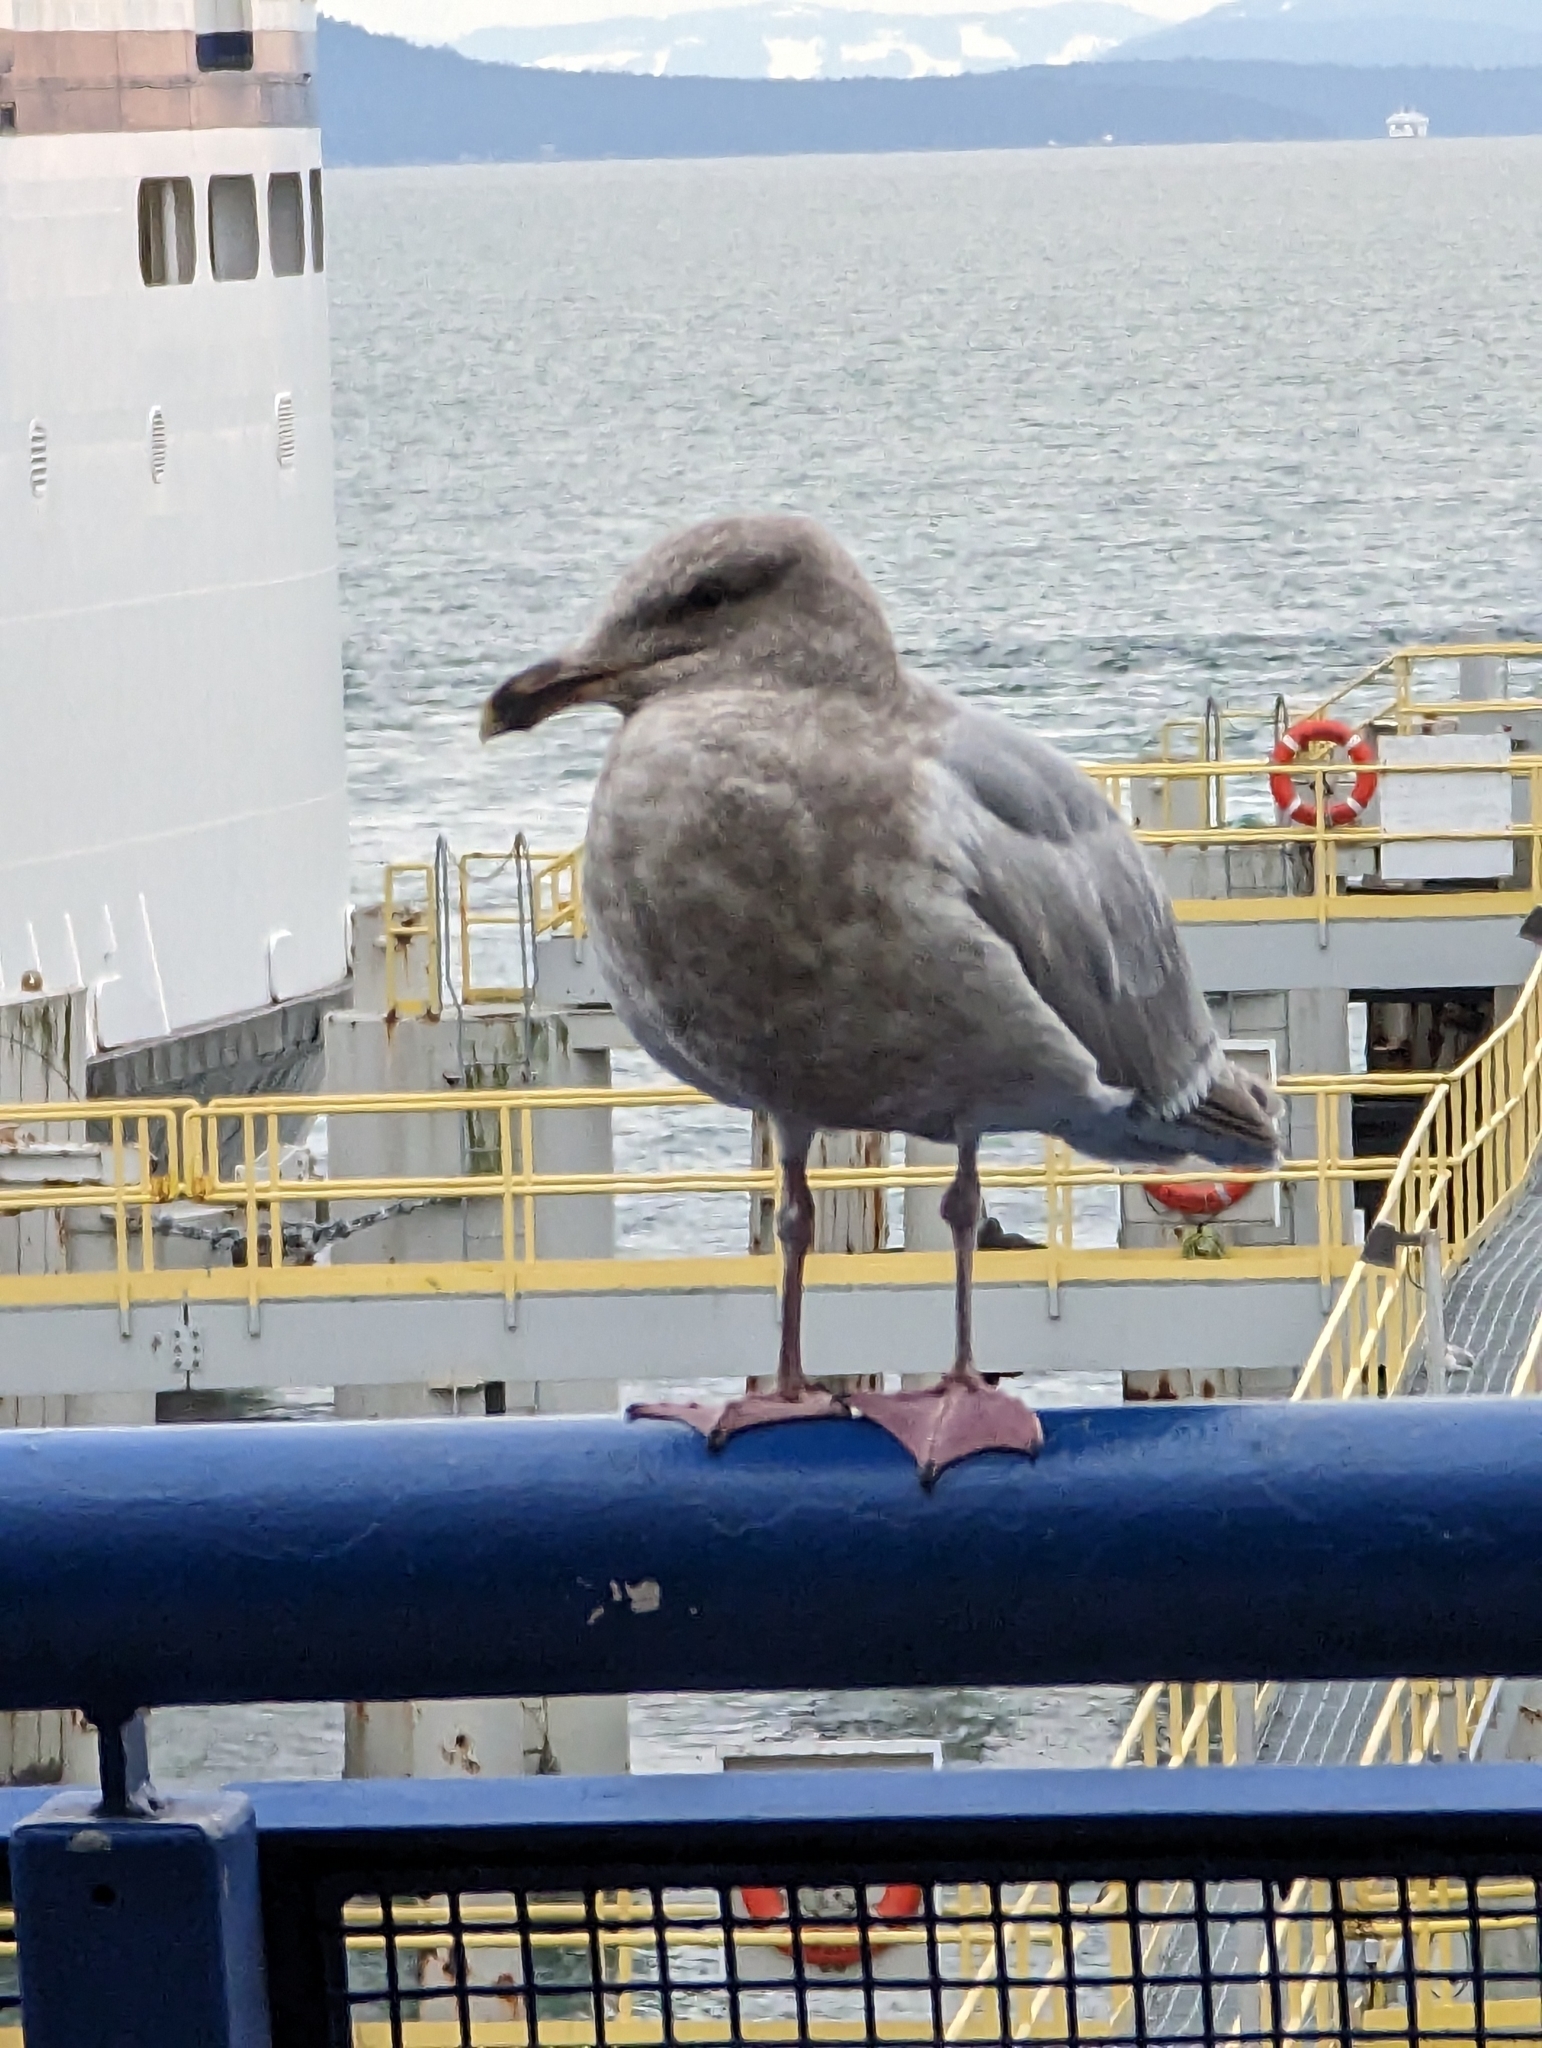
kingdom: Animalia
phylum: Chordata
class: Aves
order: Charadriiformes
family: Laridae
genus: Larus
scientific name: Larus
